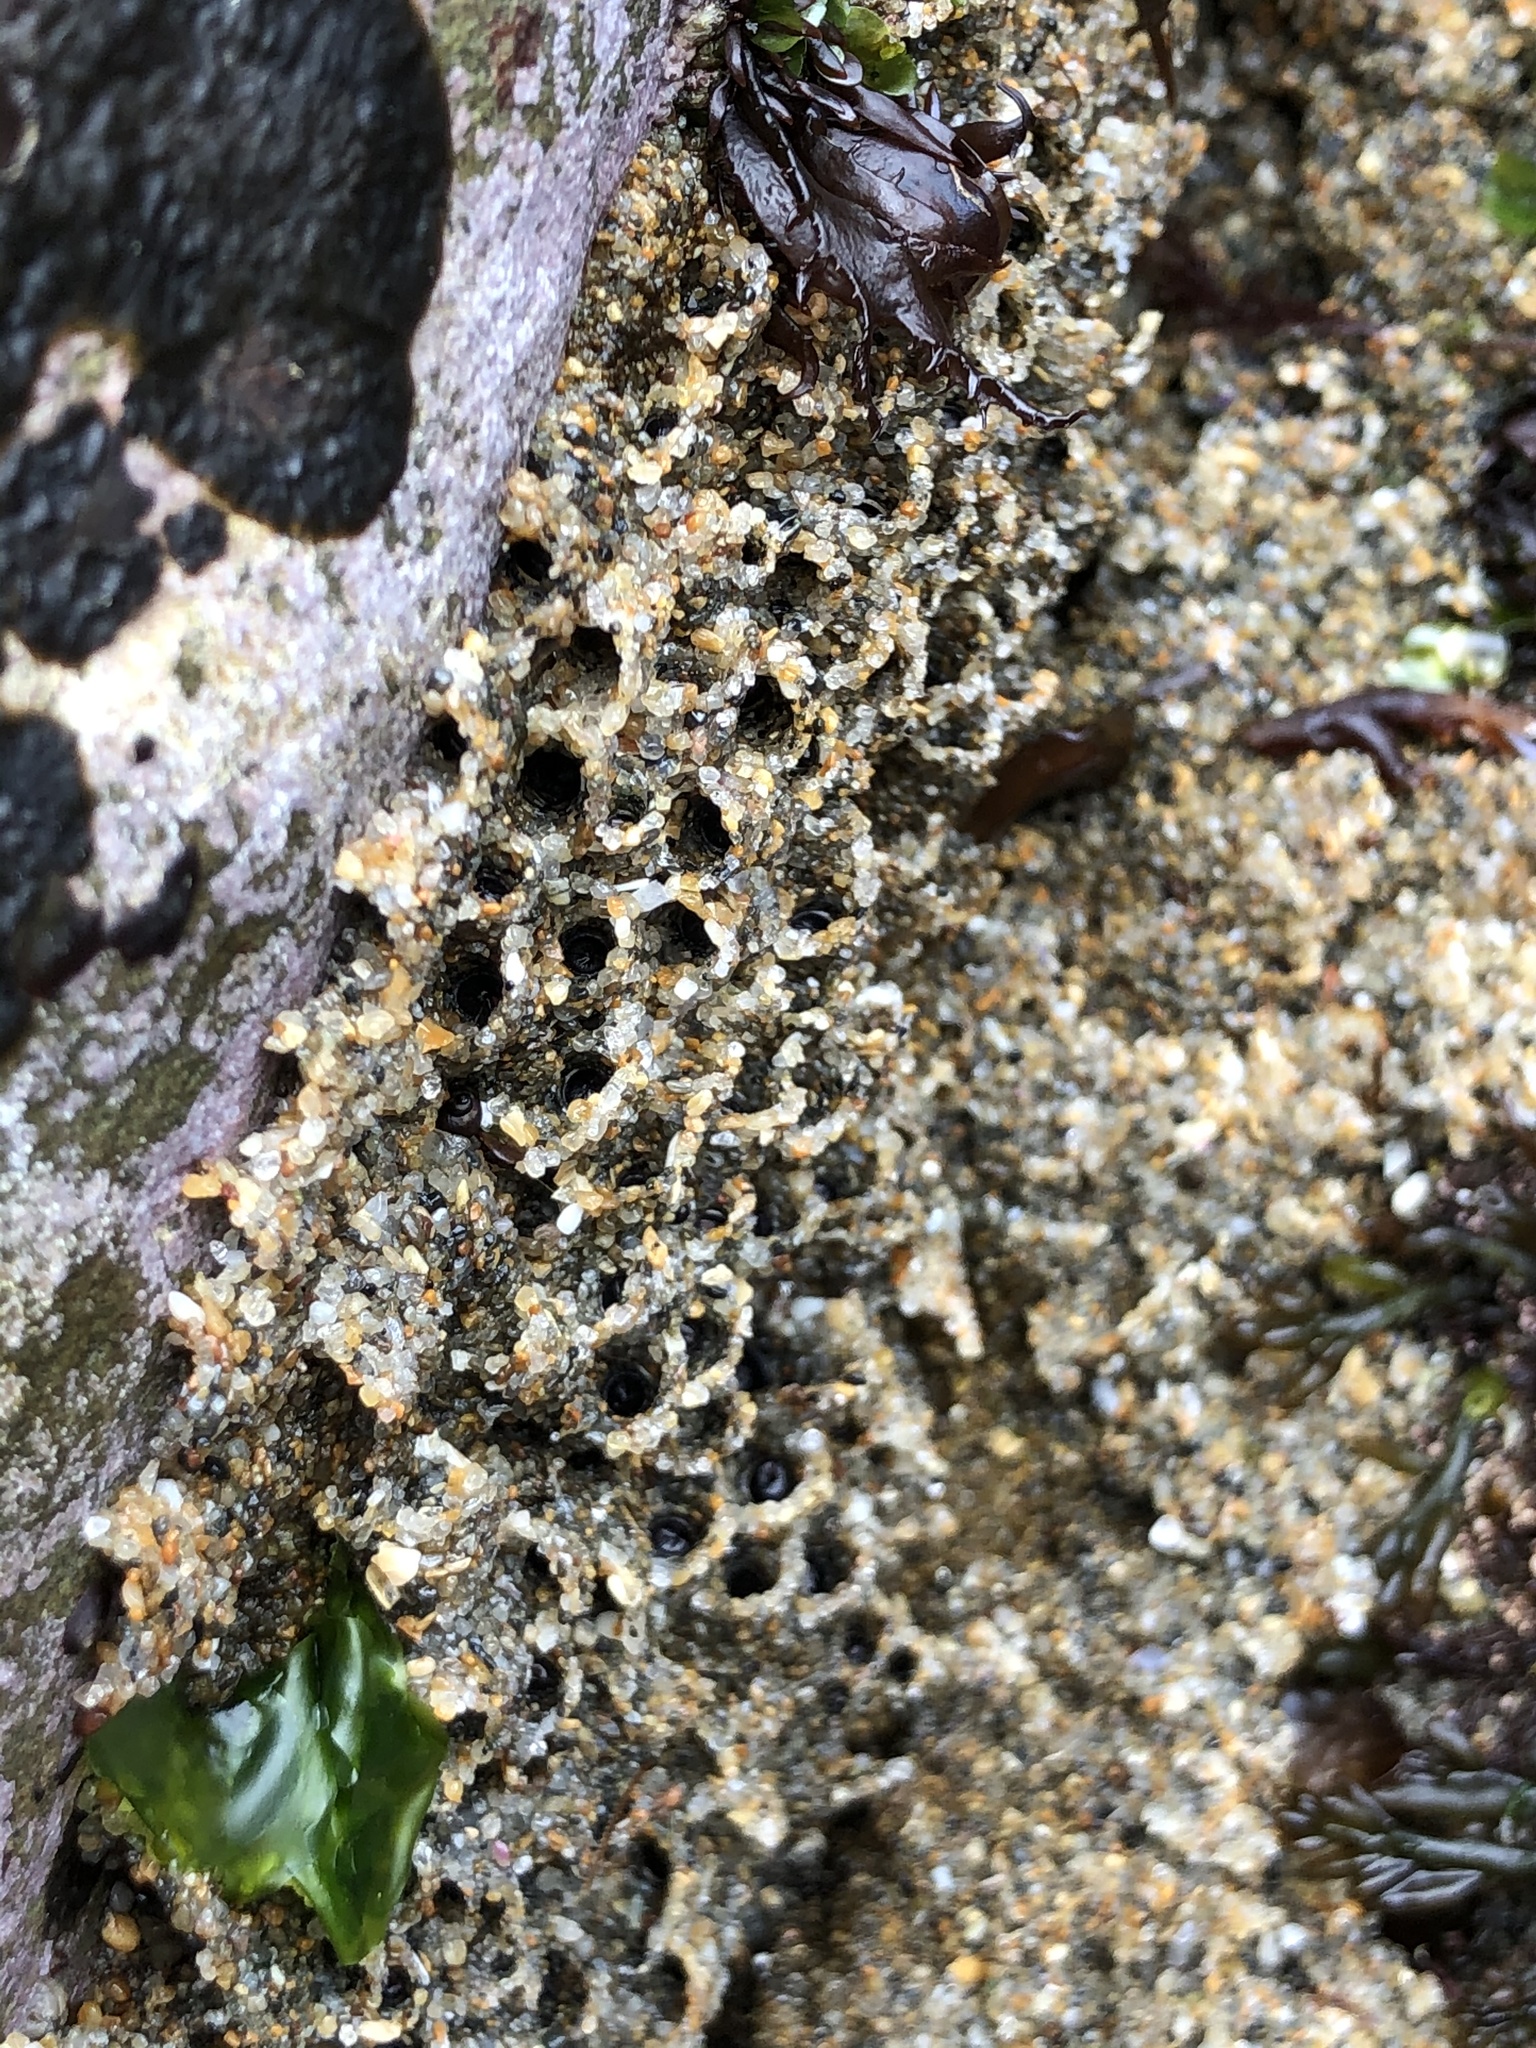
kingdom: Animalia
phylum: Annelida
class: Polychaeta
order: Sabellida
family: Sabellariidae
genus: Phragmatopoma
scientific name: Phragmatopoma californica
